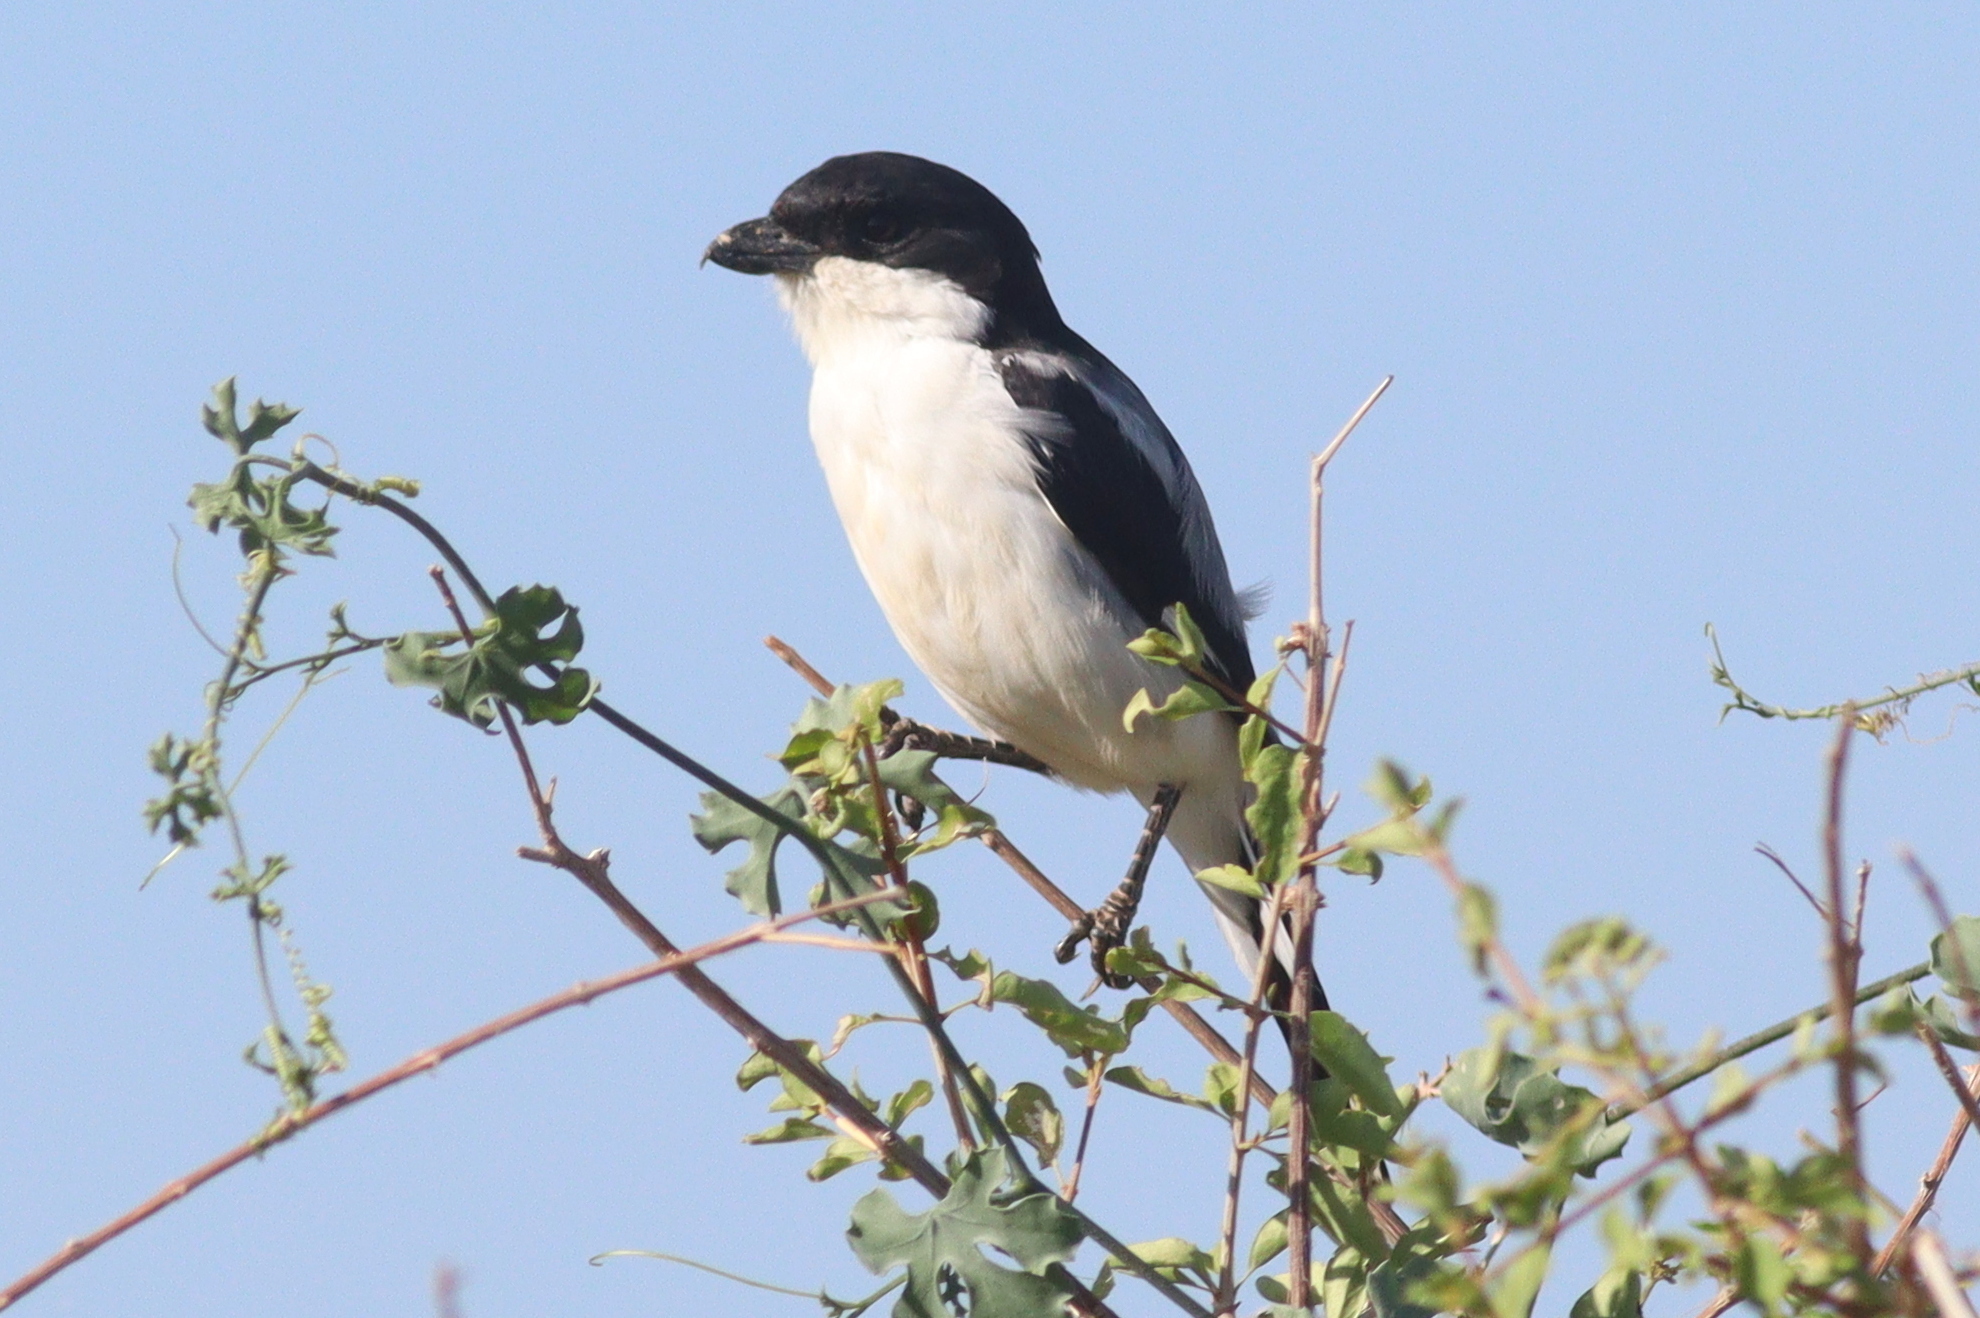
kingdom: Animalia
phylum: Chordata
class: Aves
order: Passeriformes
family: Laniidae
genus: Lanius
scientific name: Lanius dorsalis
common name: Taita fiscal
